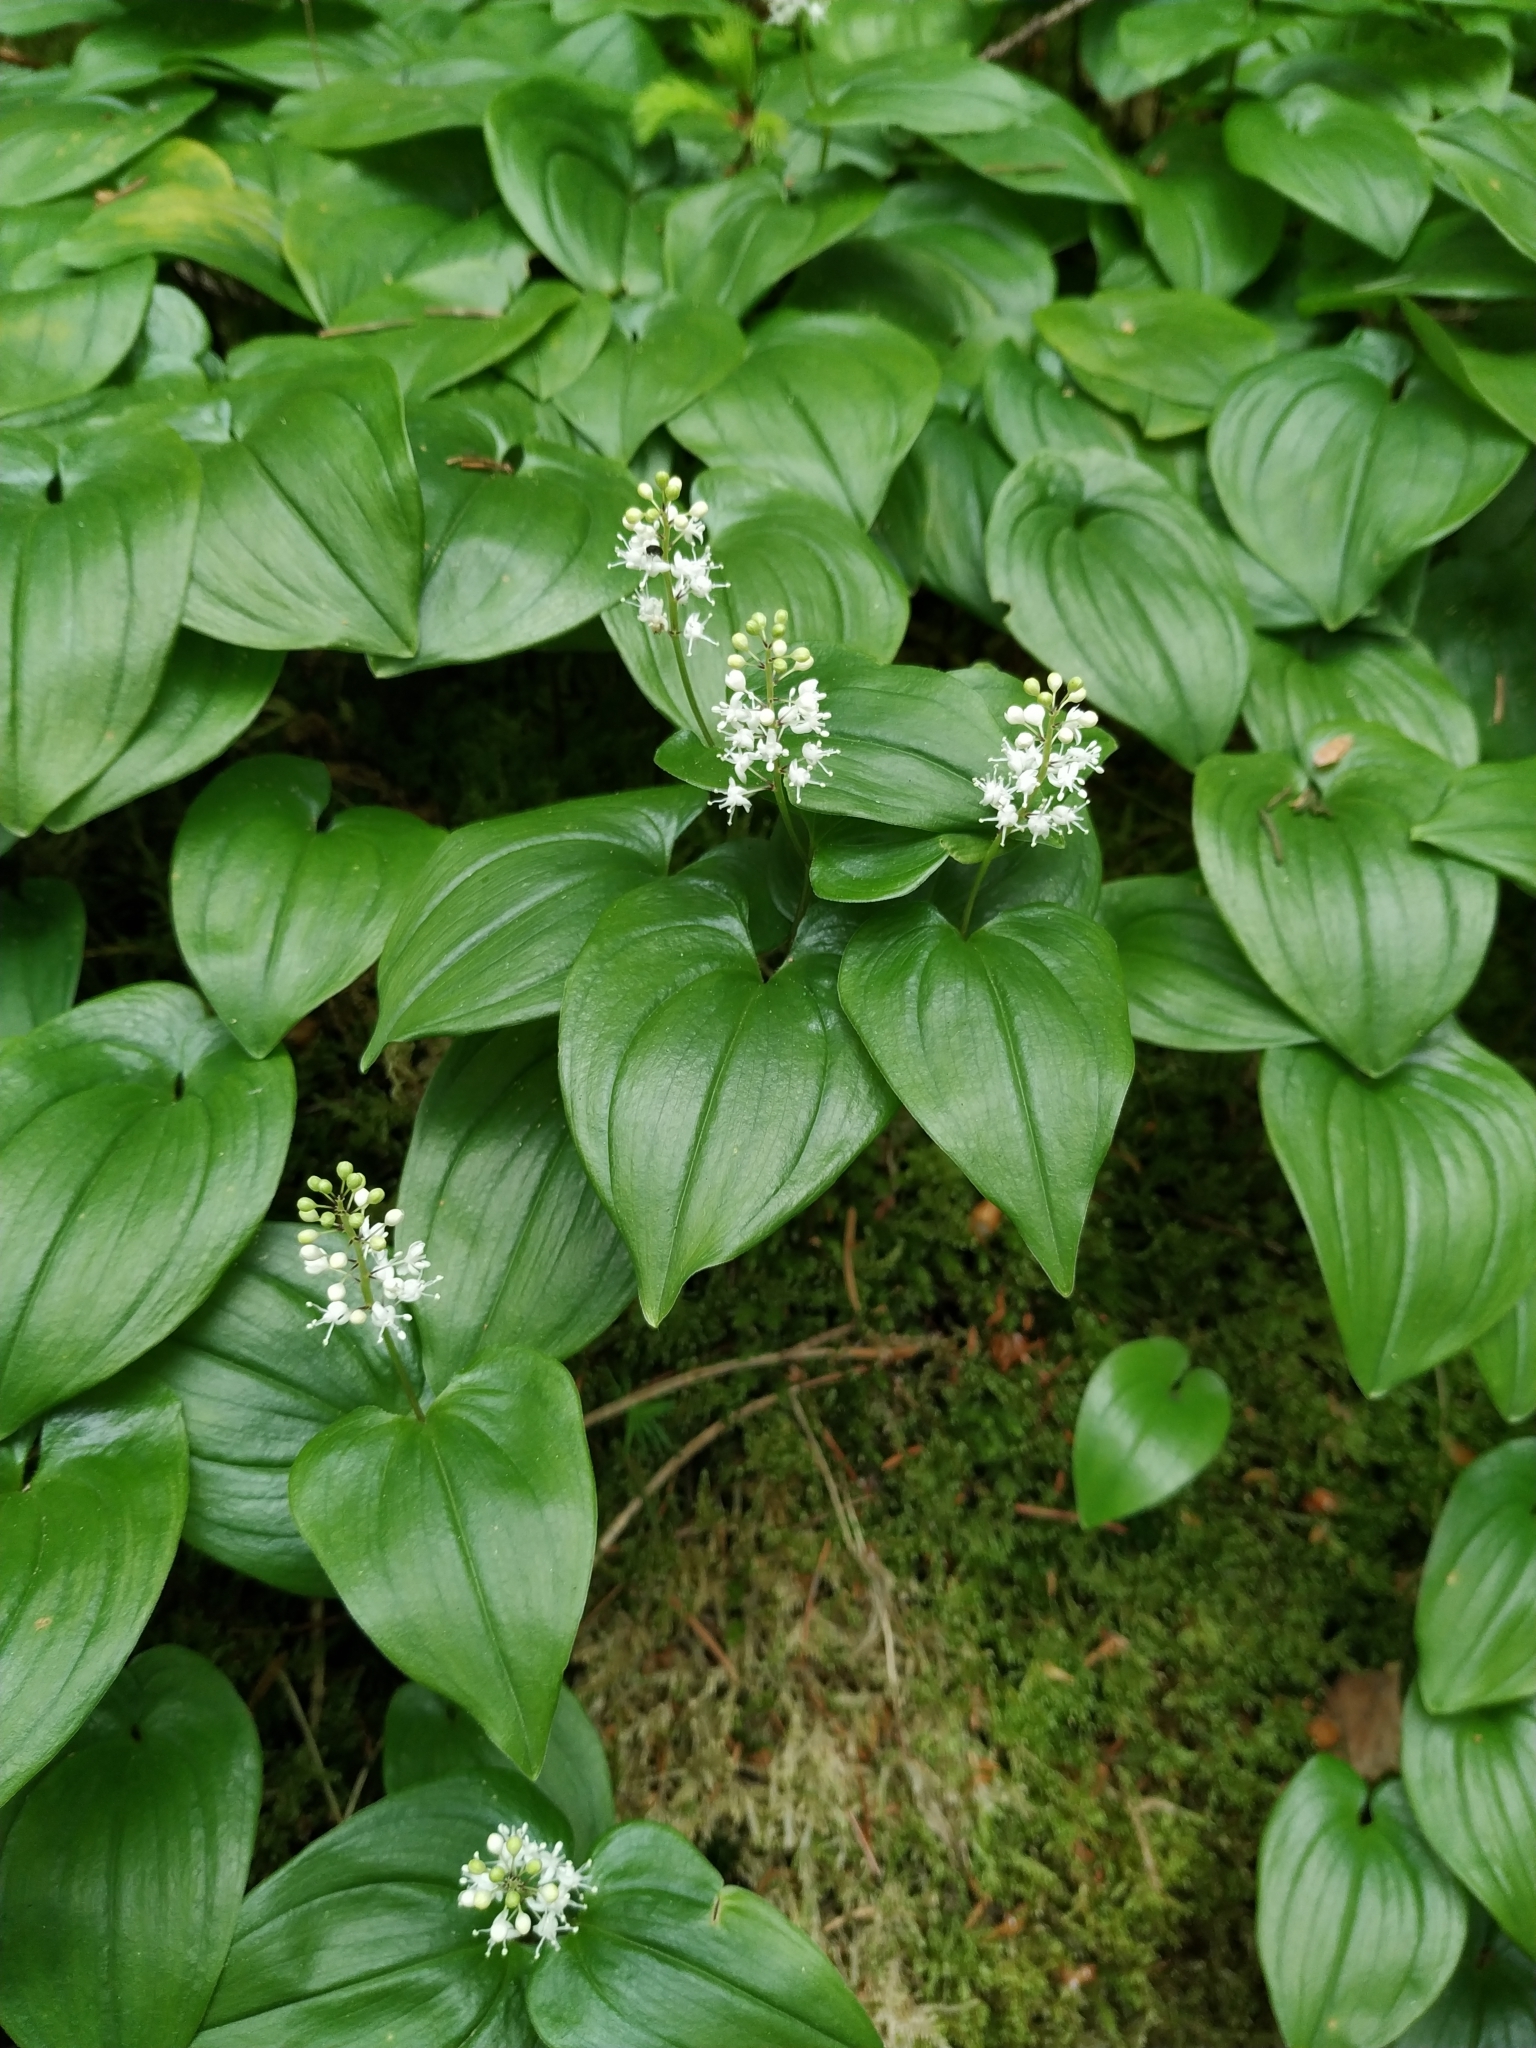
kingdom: Plantae
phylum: Tracheophyta
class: Liliopsida
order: Asparagales
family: Asparagaceae
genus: Maianthemum
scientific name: Maianthemum bifolium
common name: May lily
